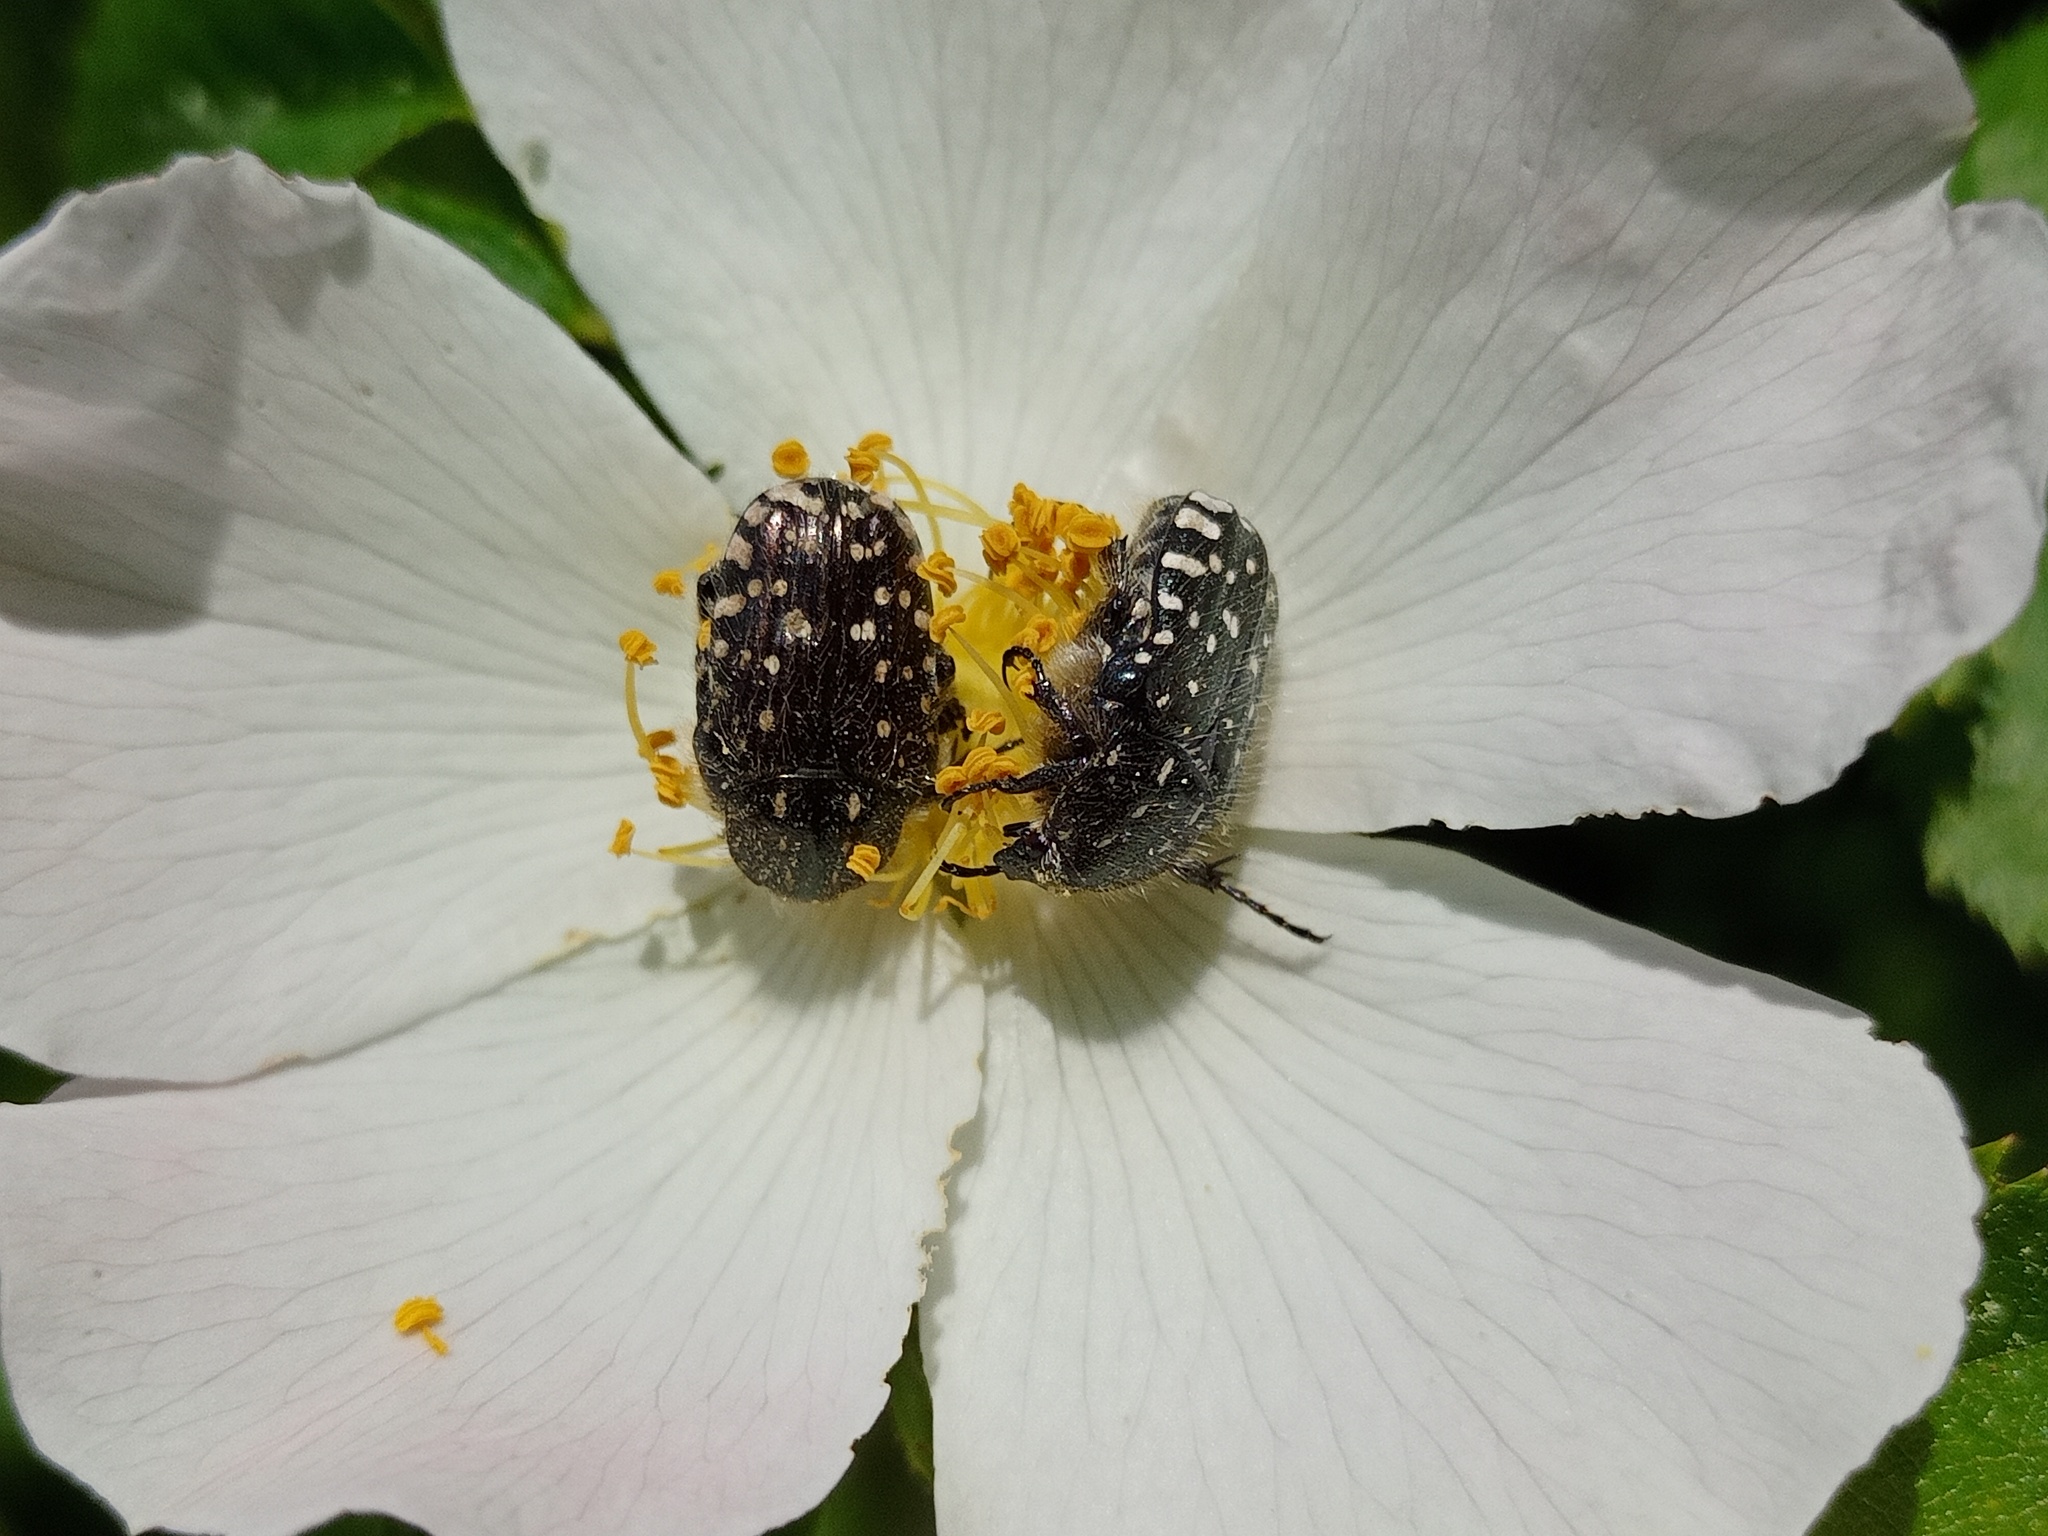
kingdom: Animalia
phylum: Arthropoda
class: Insecta
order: Coleoptera
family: Scarabaeidae
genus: Oxythyrea
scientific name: Oxythyrea funesta
